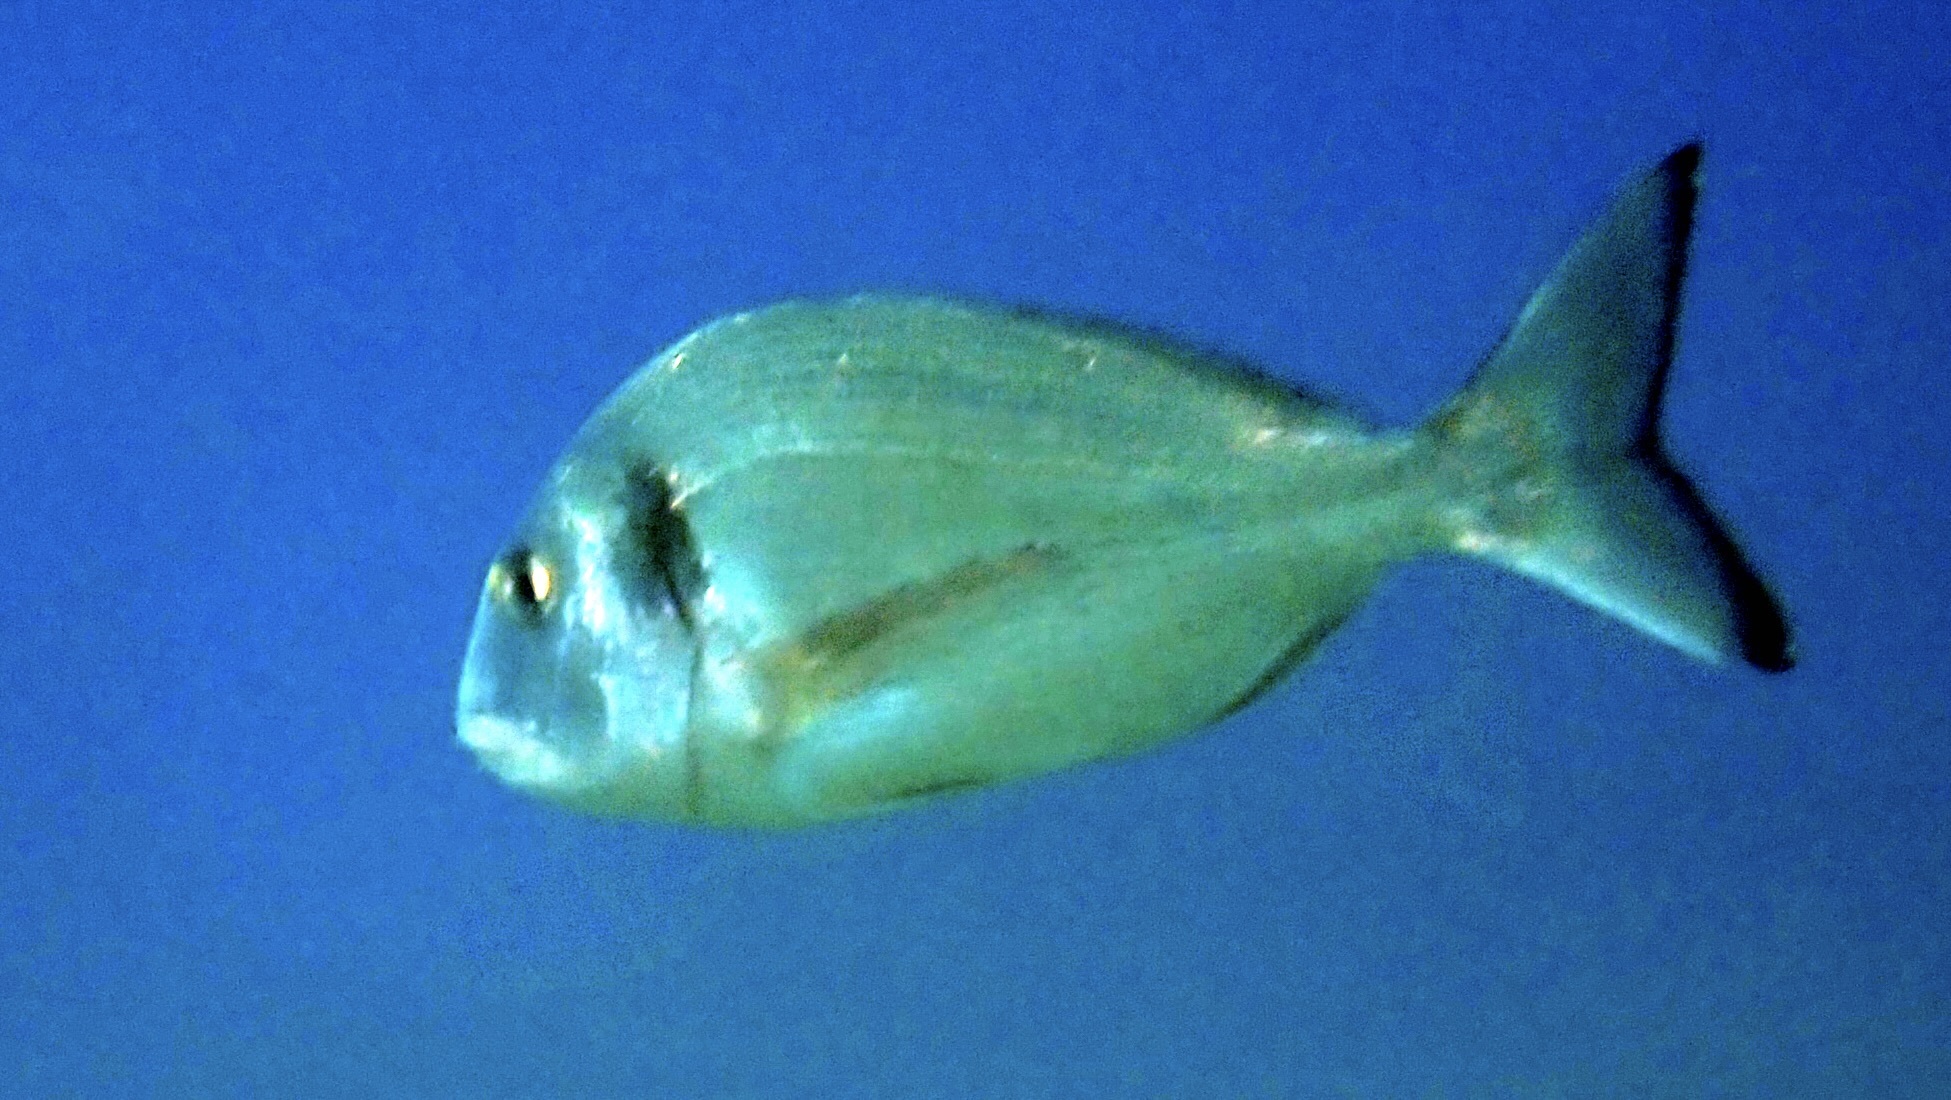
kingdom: Animalia
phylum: Chordata
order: Perciformes
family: Sparidae
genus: Sparus
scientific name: Sparus aurata
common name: Gilthead
